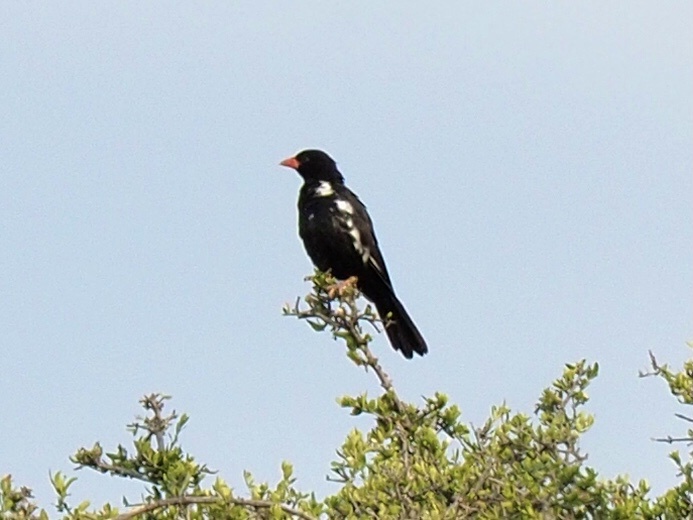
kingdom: Animalia
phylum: Chordata
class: Aves
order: Passeriformes
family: Ploceidae
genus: Bubalornis
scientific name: Bubalornis niger
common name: Red-billed buffalo weaver
